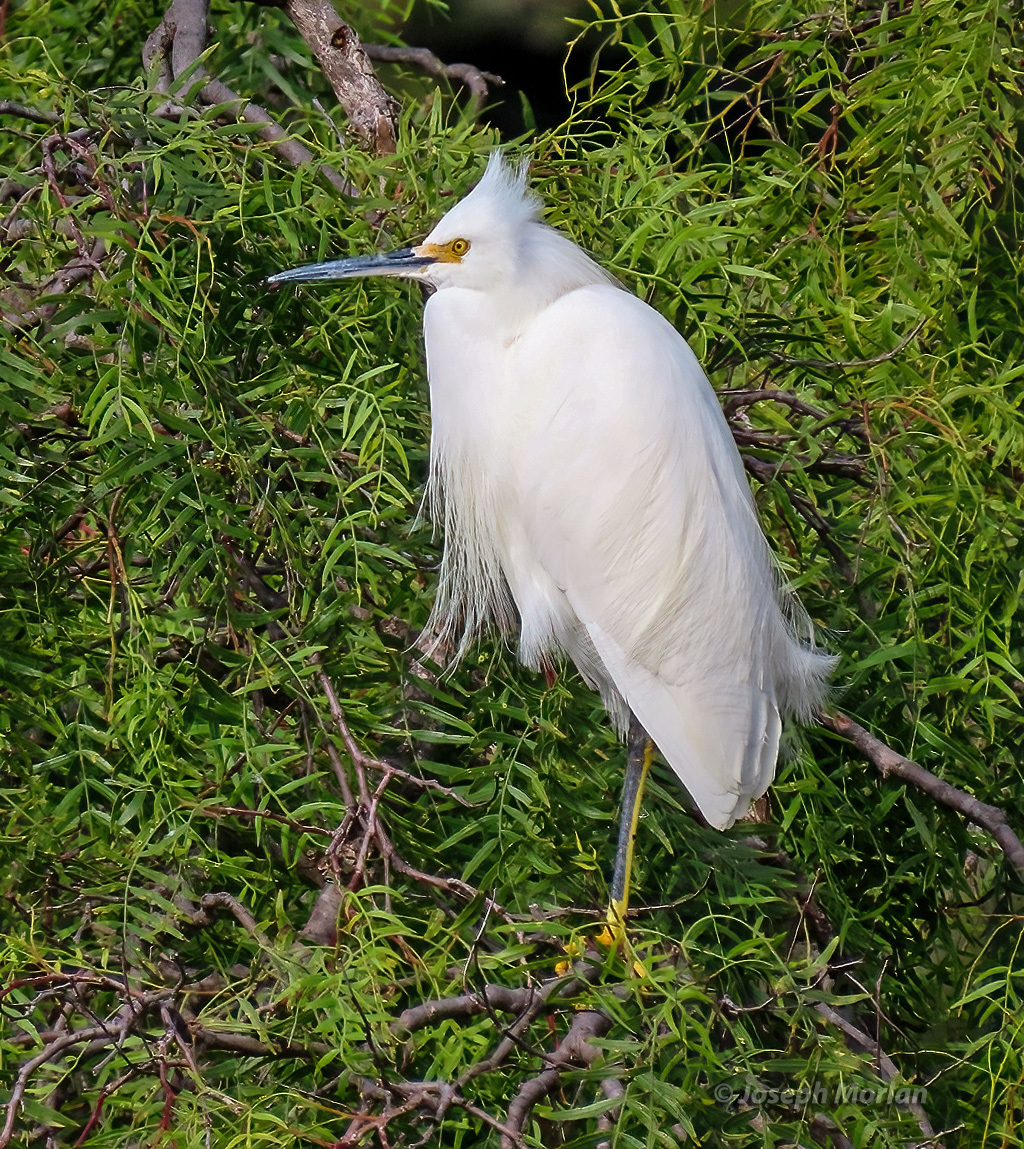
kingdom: Animalia
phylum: Chordata
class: Aves
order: Pelecaniformes
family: Ardeidae
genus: Egretta
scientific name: Egretta thula
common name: Snowy egret
